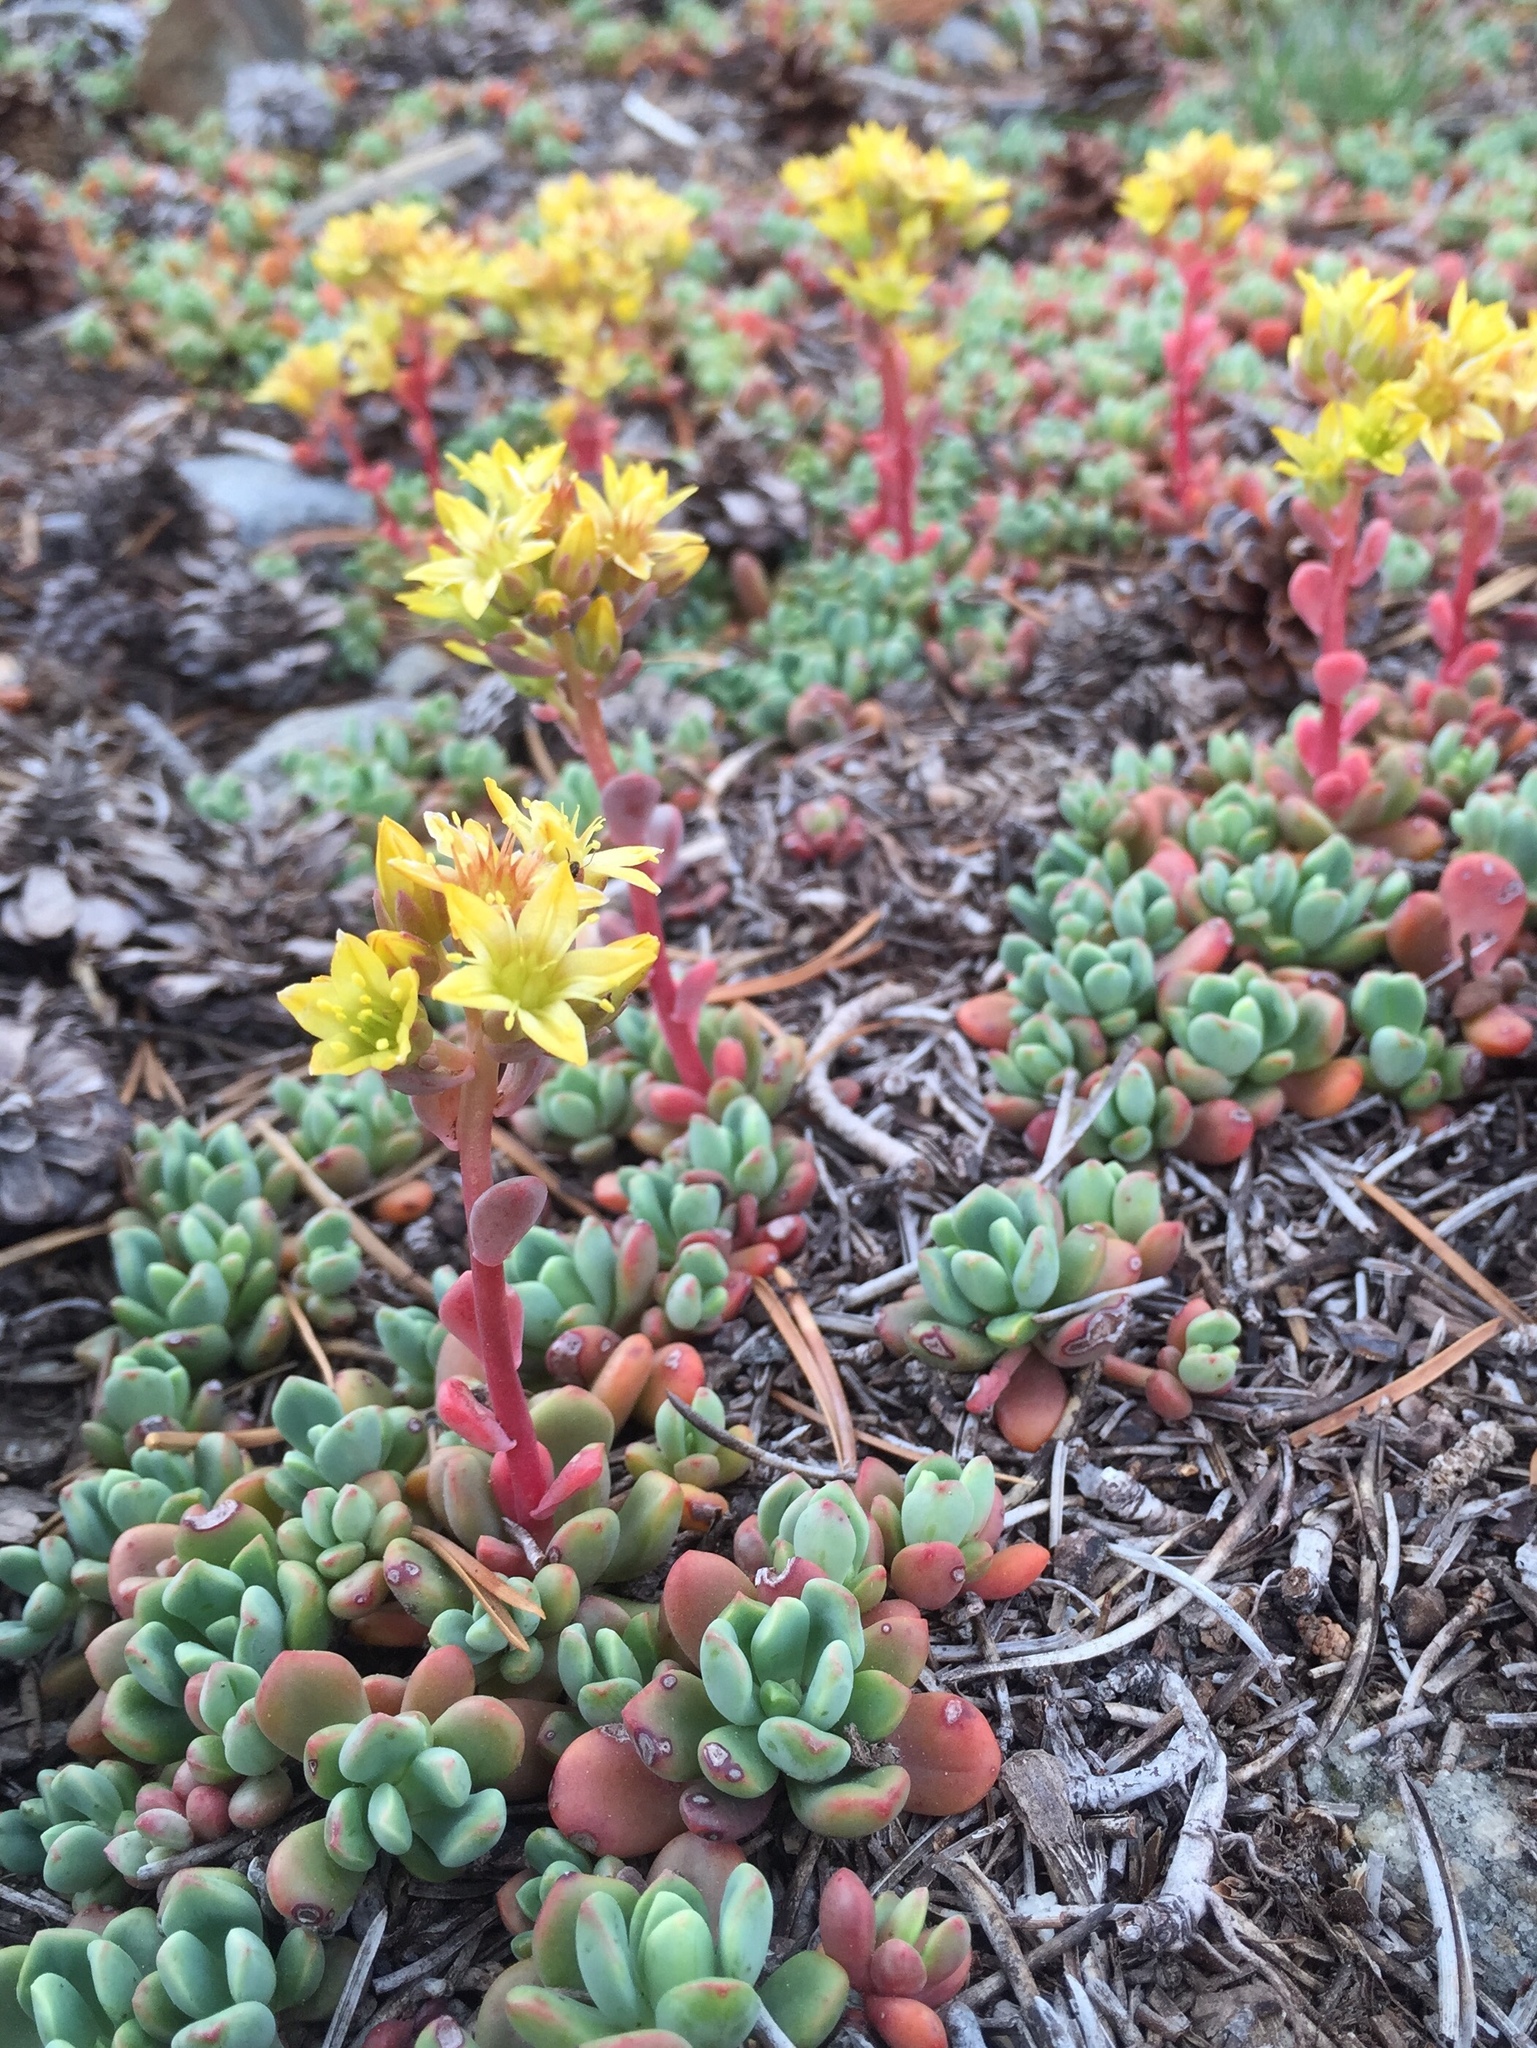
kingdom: Plantae
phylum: Tracheophyta
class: Magnoliopsida
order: Saxifragales
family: Crassulaceae
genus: Sedum
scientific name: Sedum obtusatum
